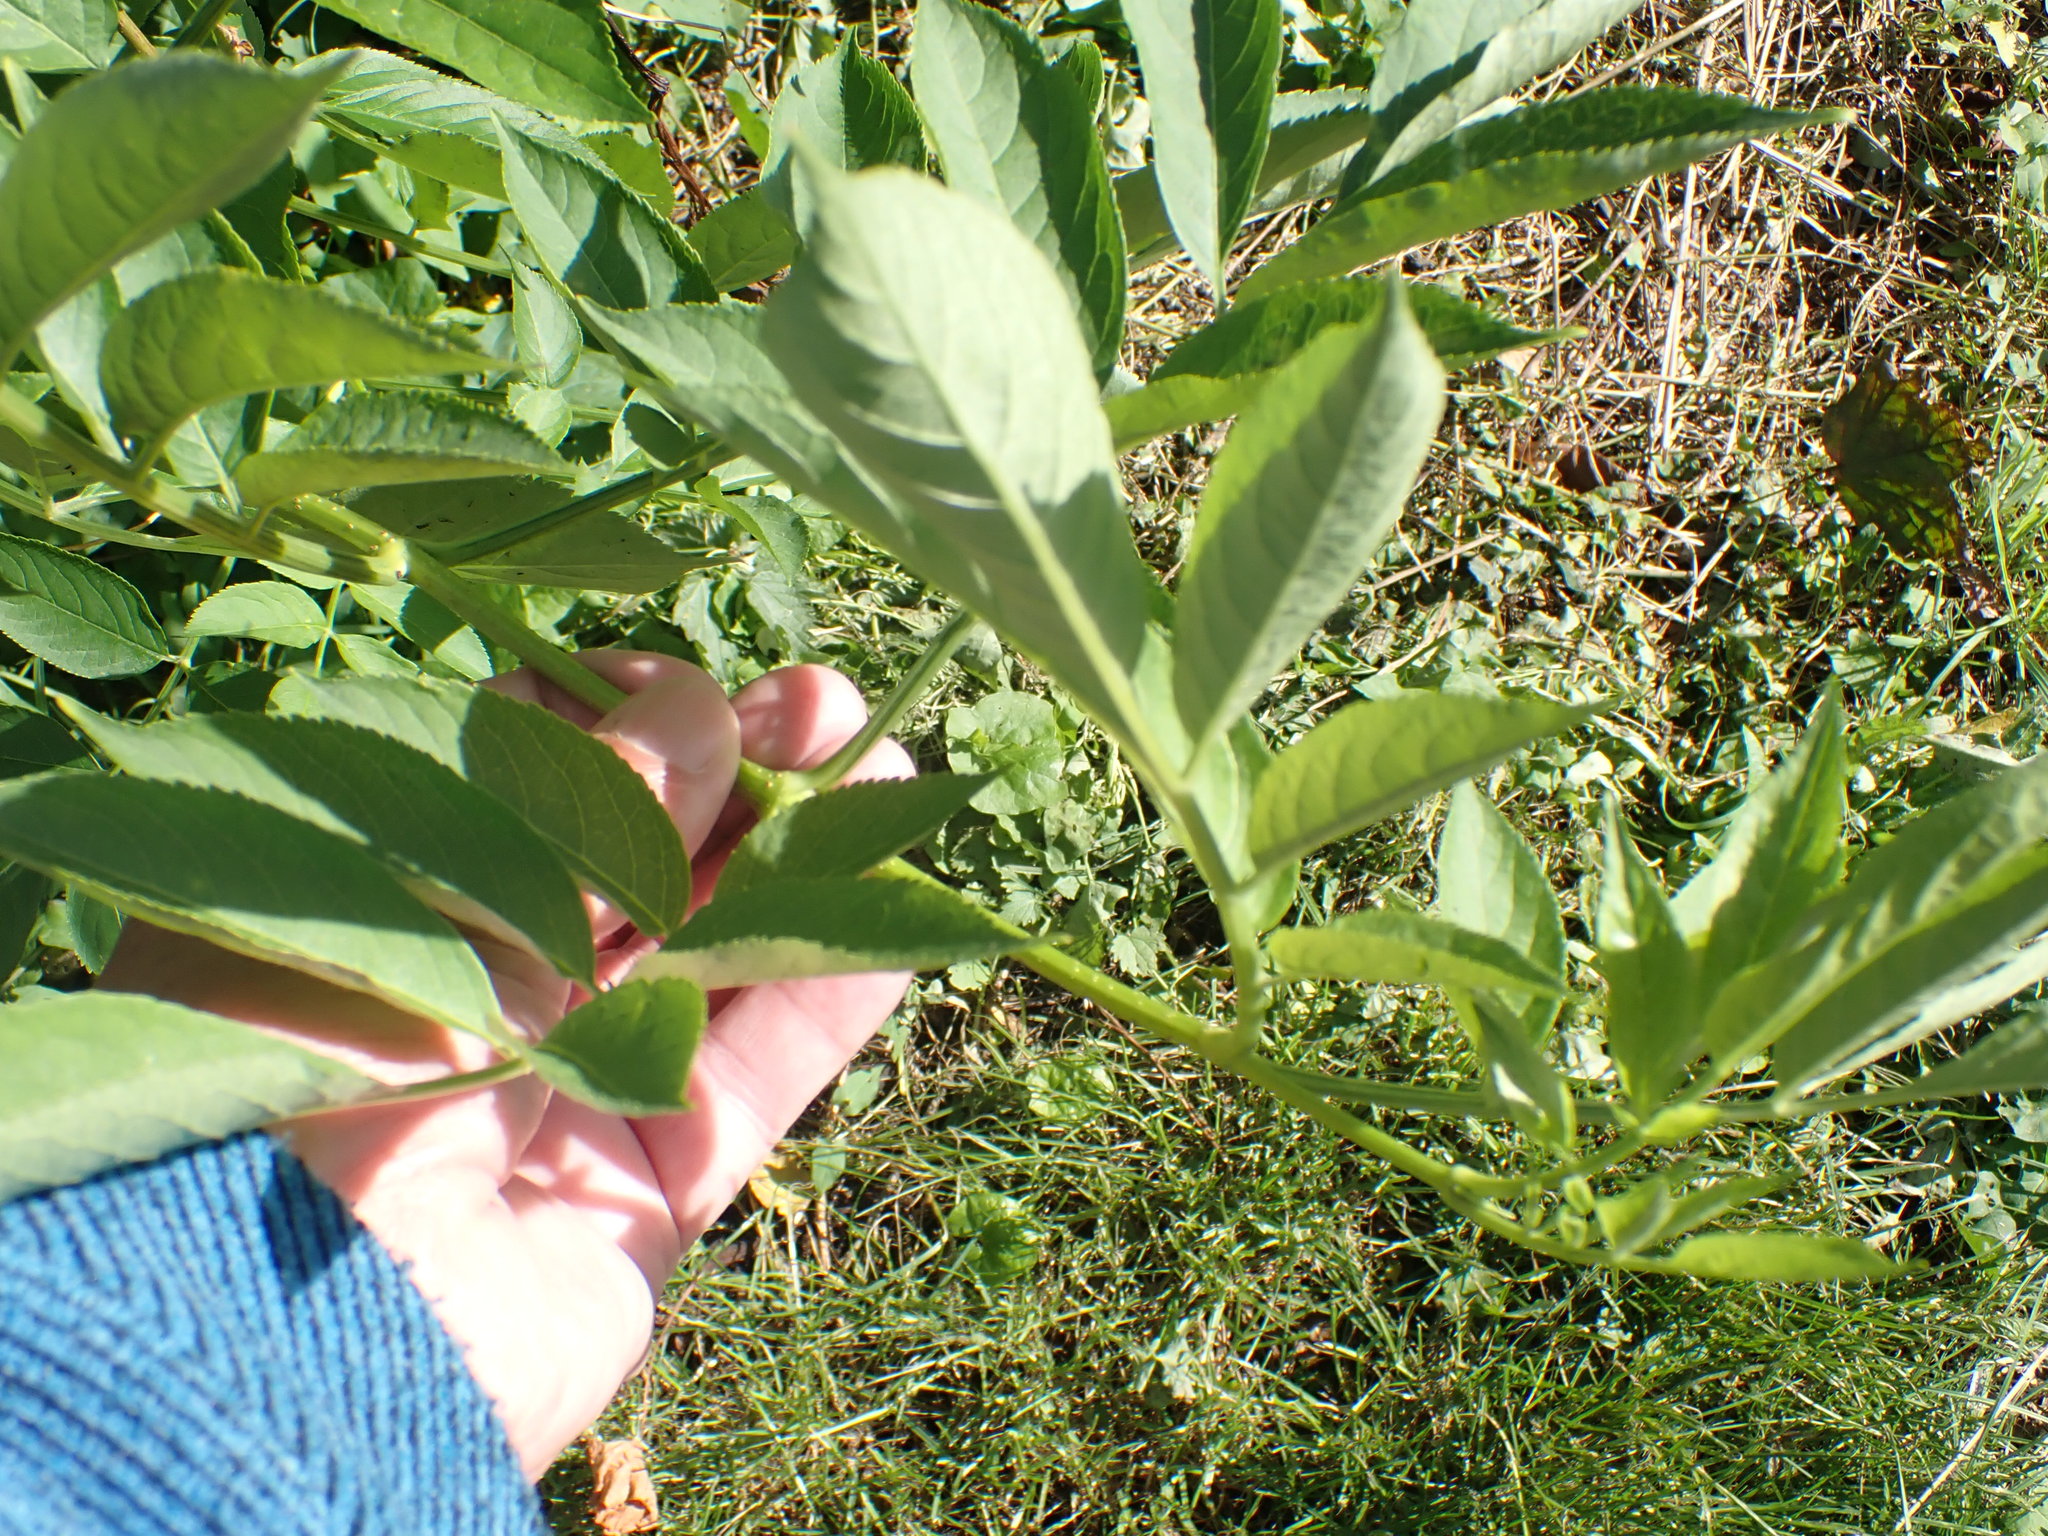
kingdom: Plantae
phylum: Tracheophyta
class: Magnoliopsida
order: Dipsacales
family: Viburnaceae
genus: Sambucus
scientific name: Sambucus nigra
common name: Elder
